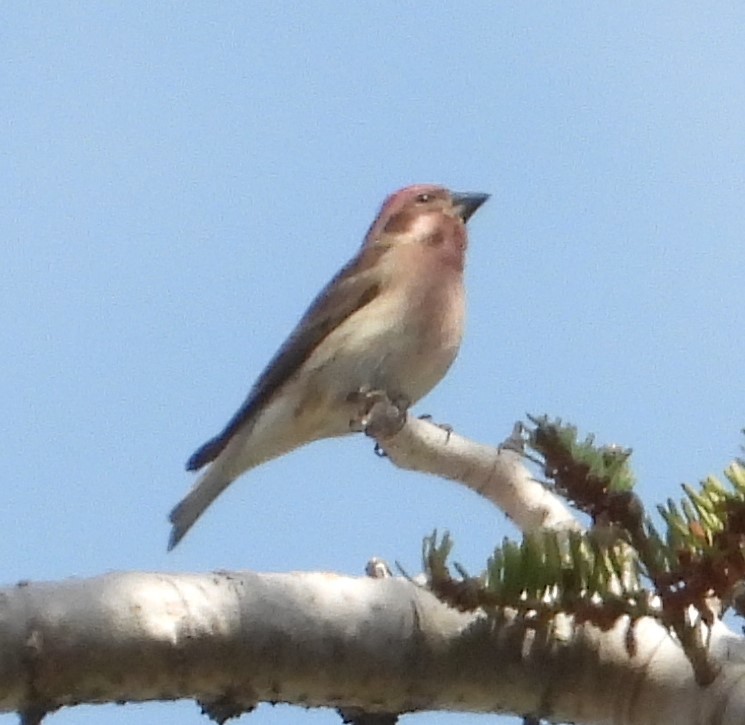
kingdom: Animalia
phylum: Chordata
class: Aves
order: Passeriformes
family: Fringillidae
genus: Haemorhous
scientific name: Haemorhous cassinii
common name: Cassin's finch
